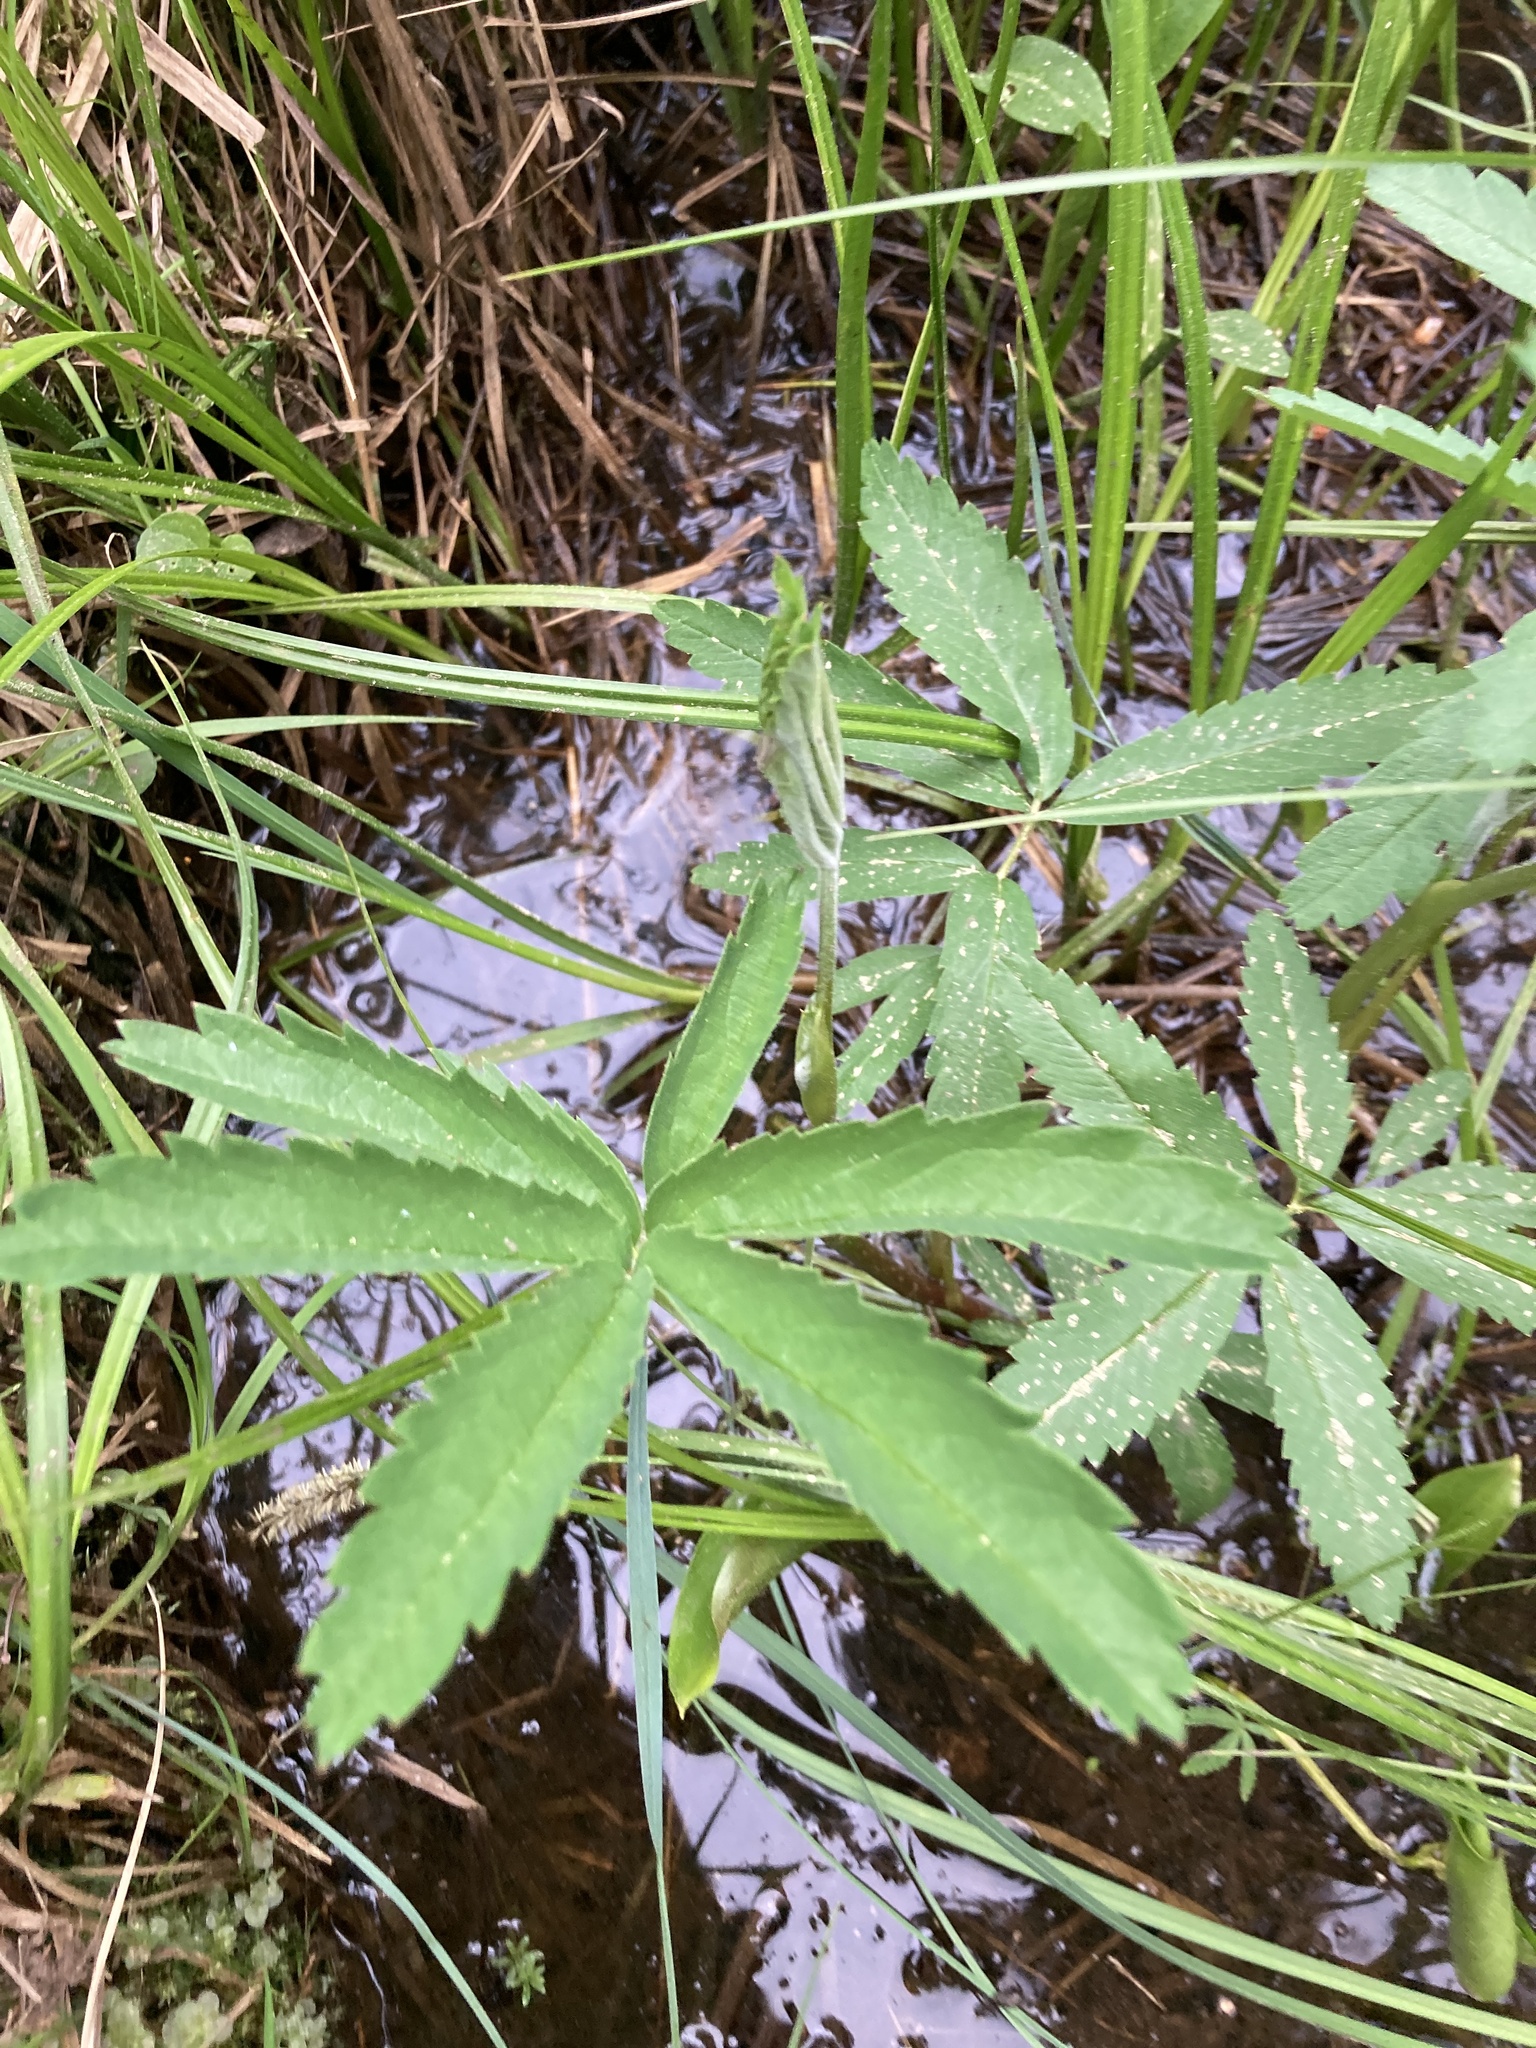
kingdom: Plantae
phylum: Tracheophyta
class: Magnoliopsida
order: Rosales
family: Rosaceae
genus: Comarum
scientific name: Comarum palustre
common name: Marsh cinquefoil
